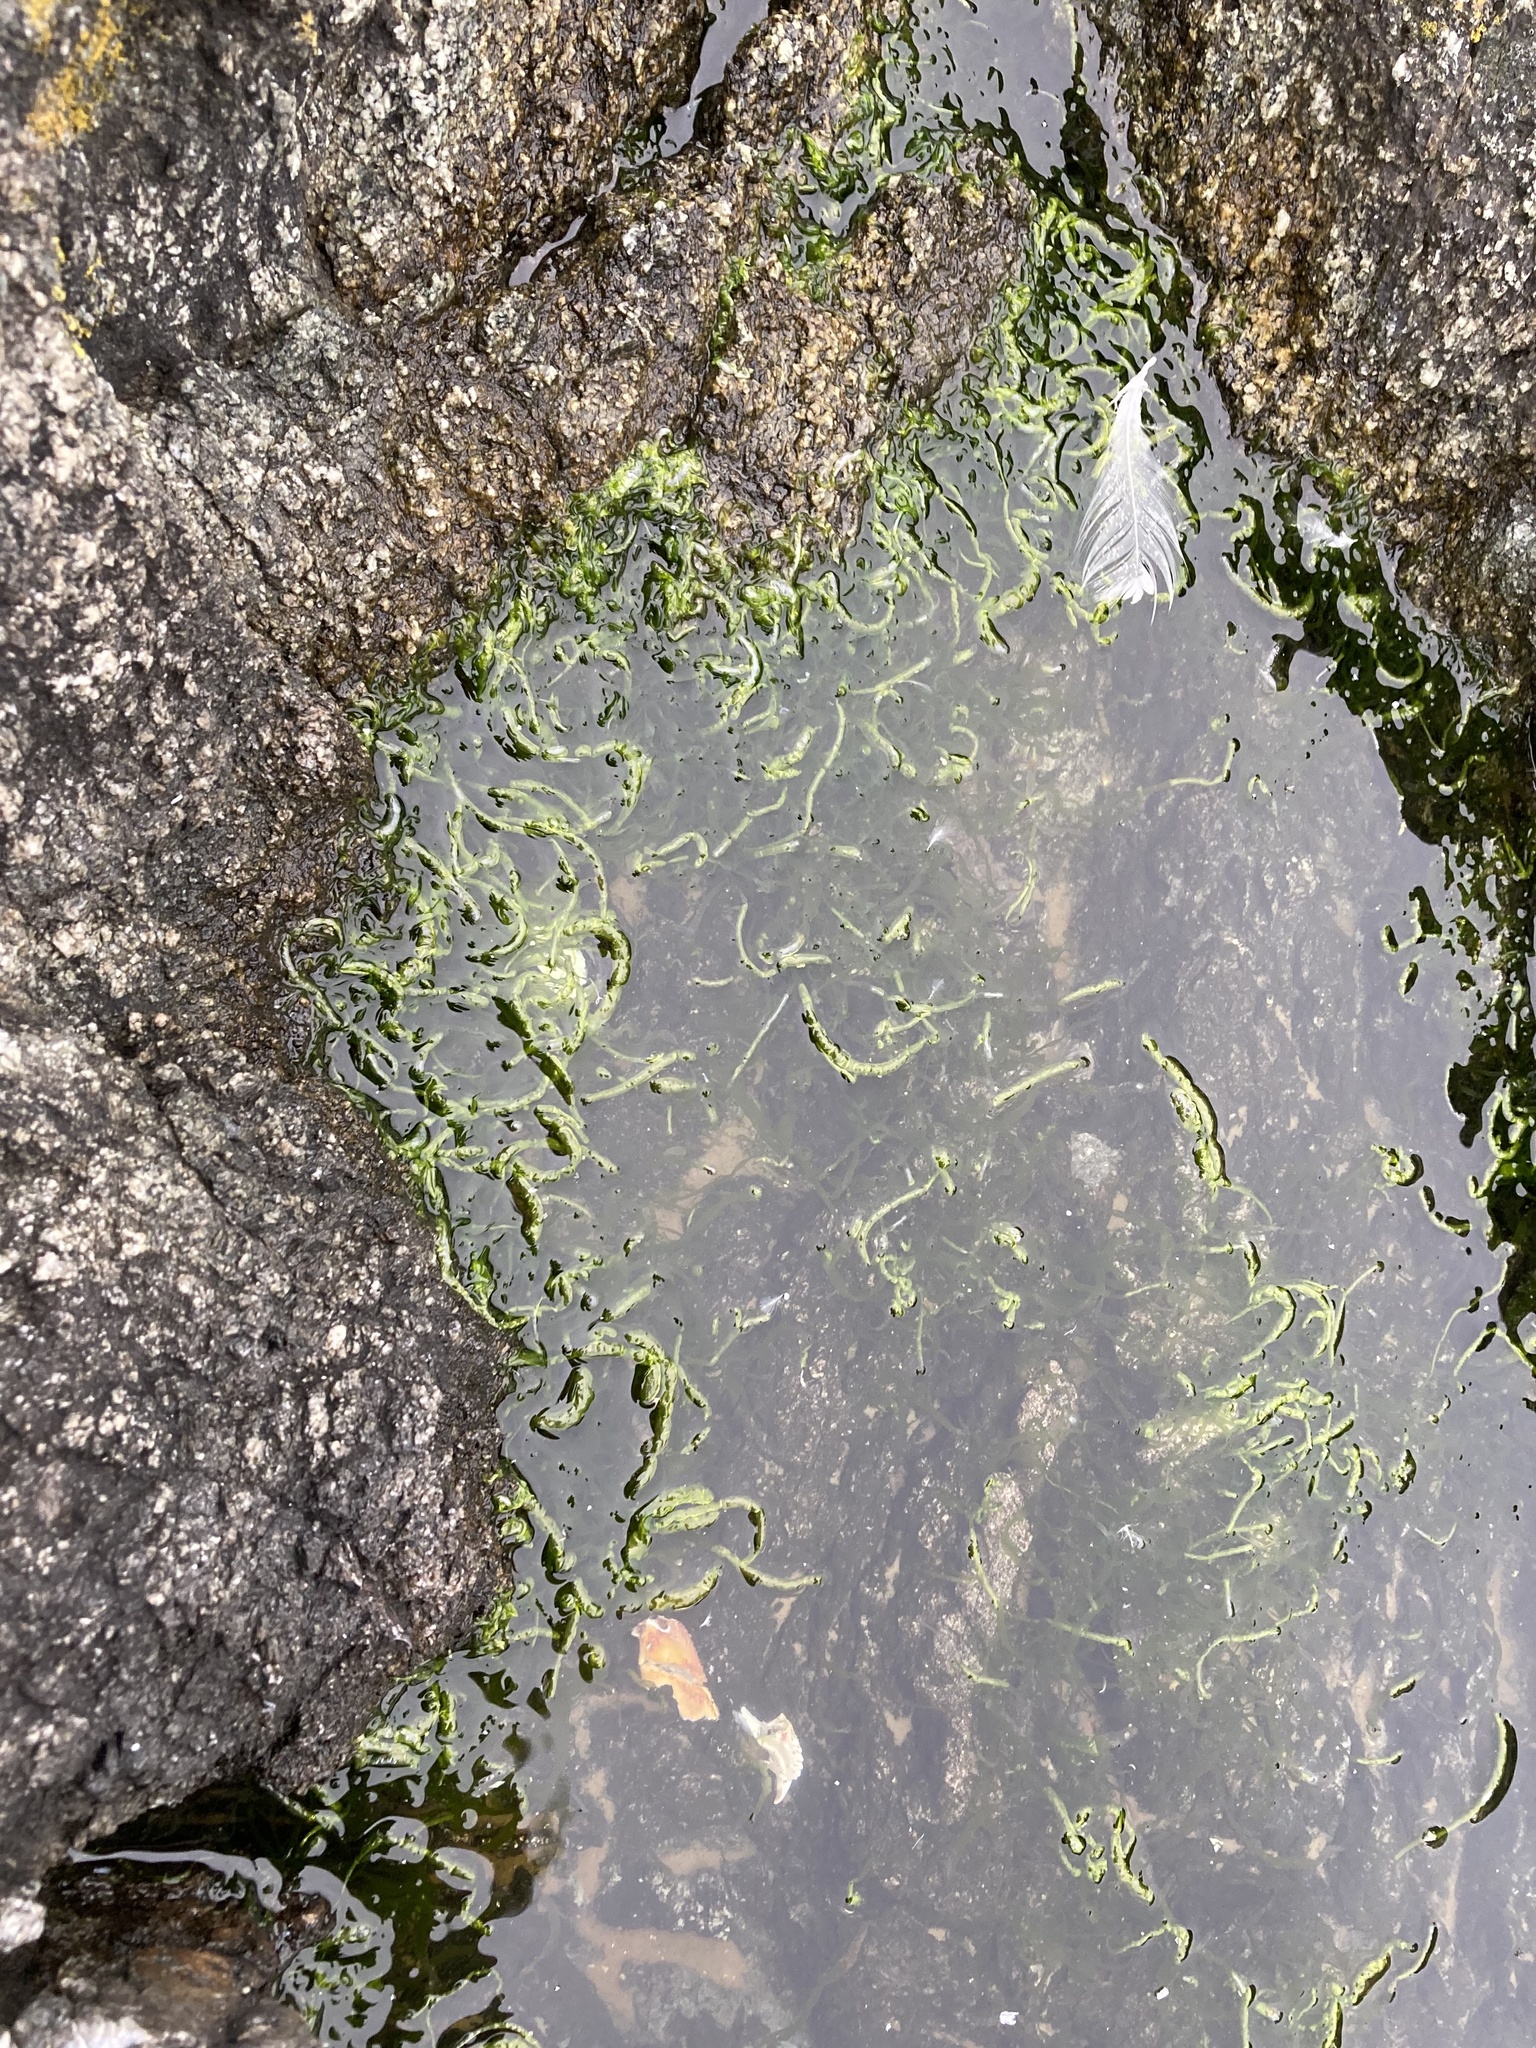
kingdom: Plantae
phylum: Chlorophyta
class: Ulvophyceae
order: Ulvales
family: Ulvaceae
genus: Ulva
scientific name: Ulva intestinalis
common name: Gut weed
